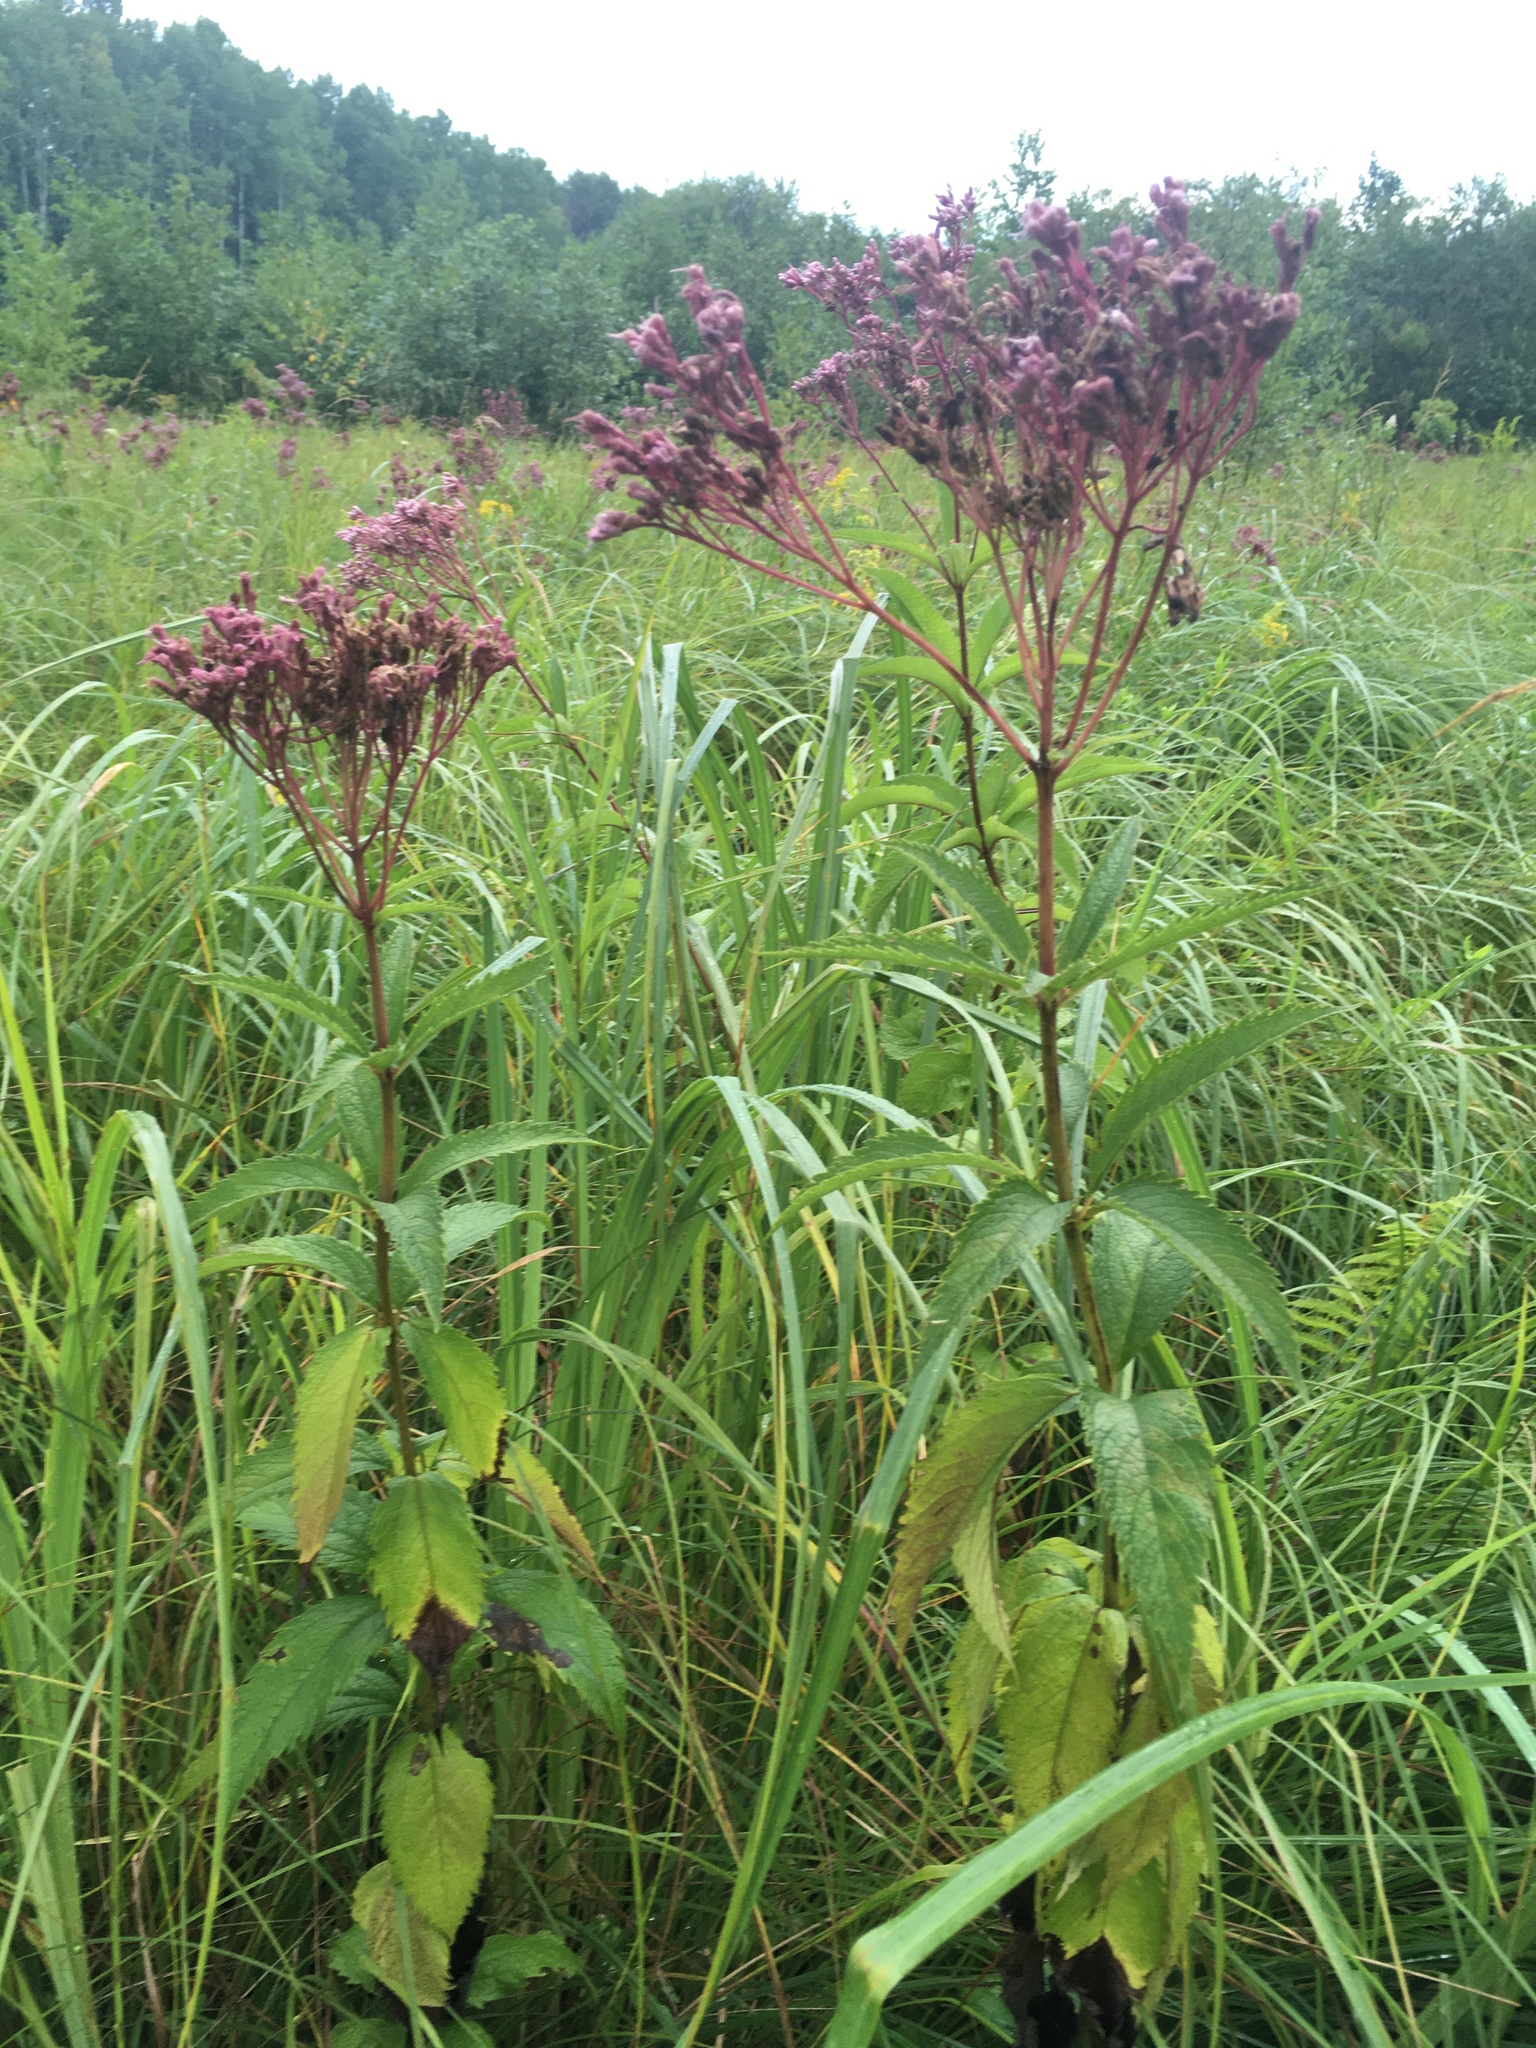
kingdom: Plantae
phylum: Tracheophyta
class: Magnoliopsida
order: Asterales
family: Asteraceae
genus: Eutrochium
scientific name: Eutrochium maculatum
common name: Spotted joe pye weed
